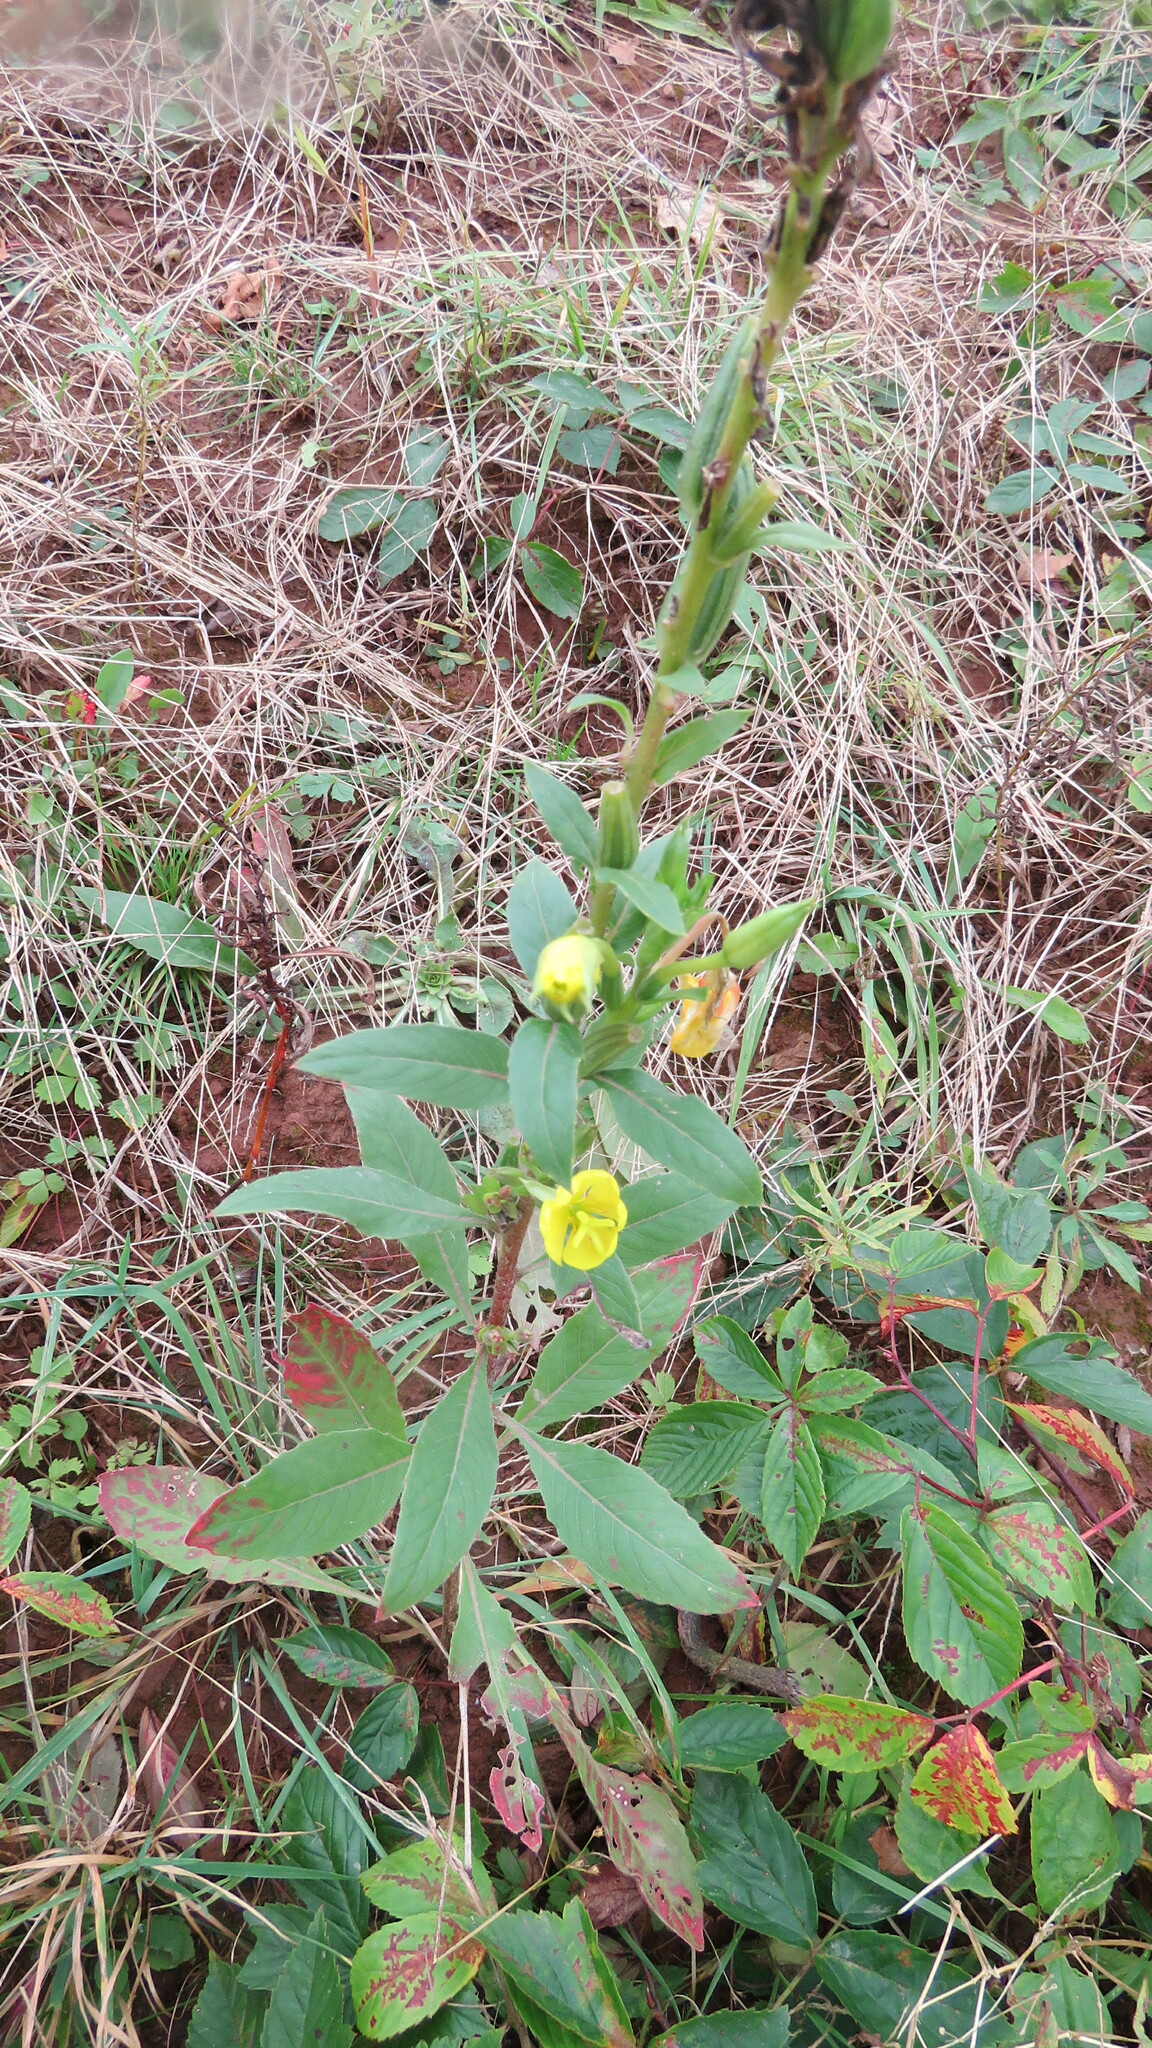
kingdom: Plantae
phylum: Tracheophyta
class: Magnoliopsida
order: Myrtales
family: Onagraceae
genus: Oenothera
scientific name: Oenothera biennis
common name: Common evening-primrose
